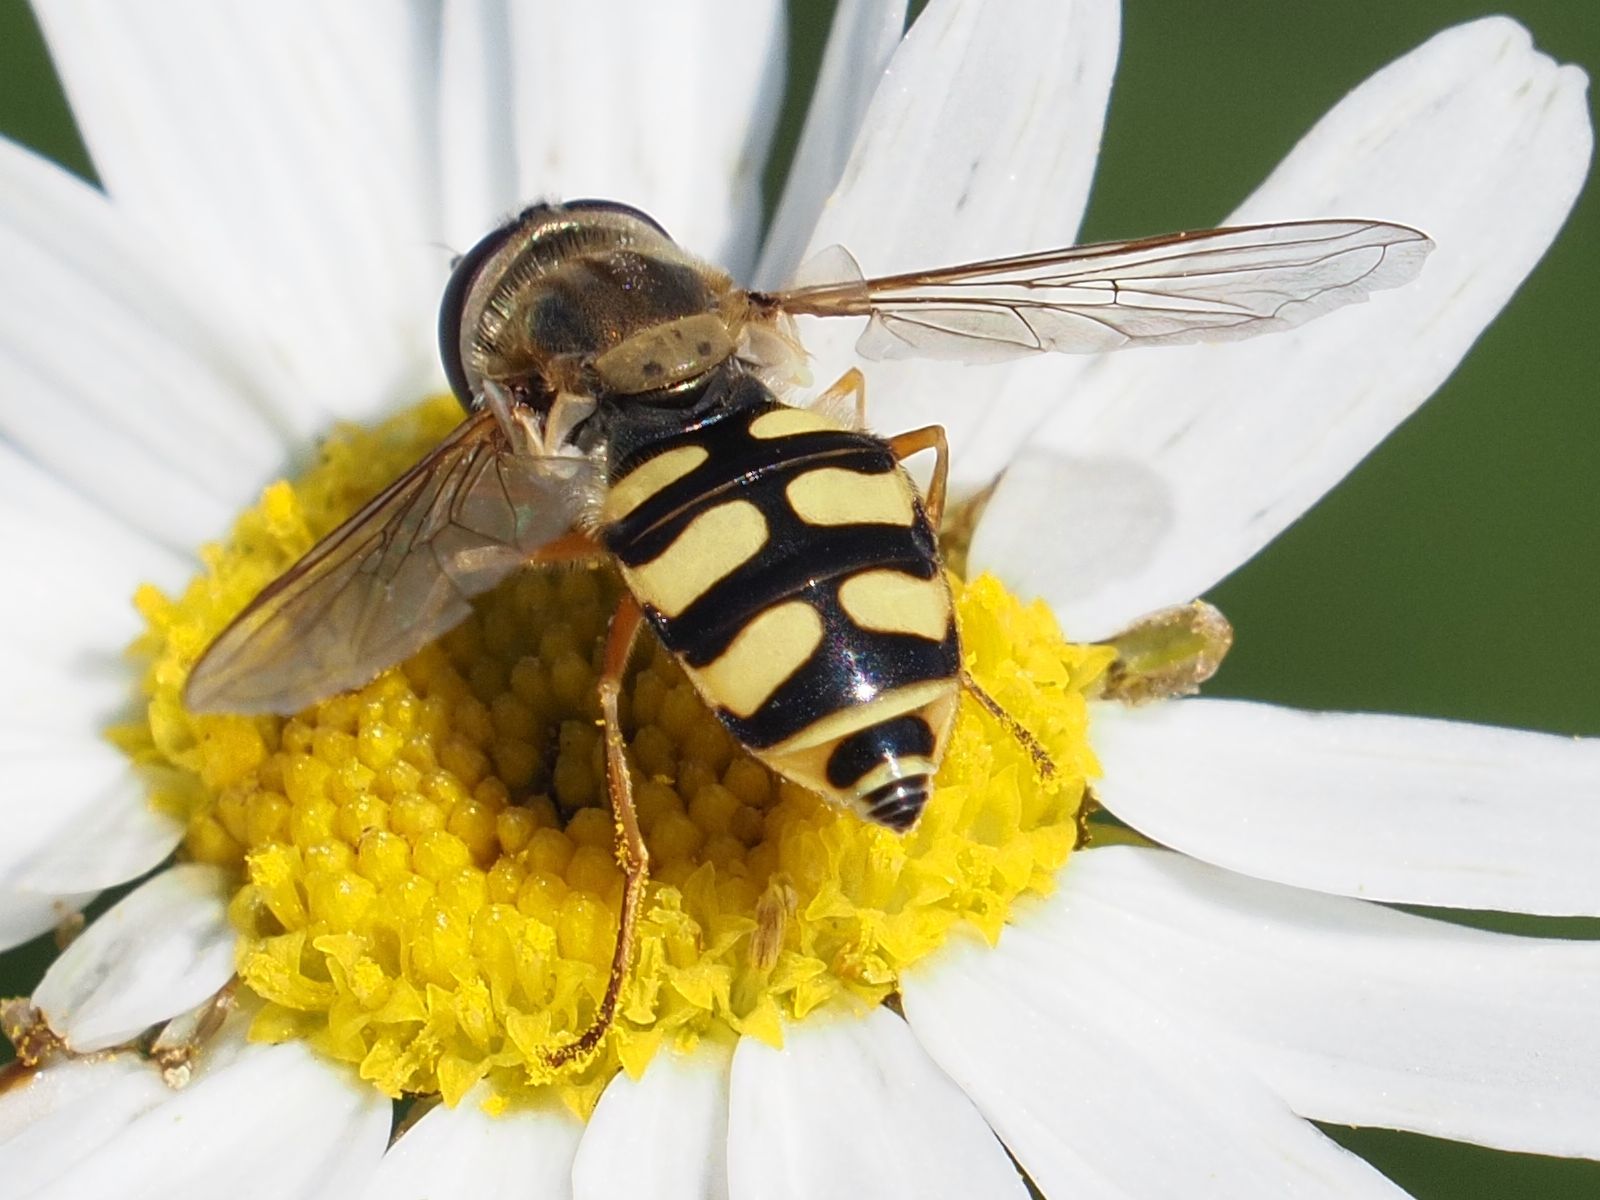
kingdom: Animalia
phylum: Arthropoda
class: Insecta
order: Diptera
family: Syrphidae
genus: Eupeodes
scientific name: Eupeodes corollae
